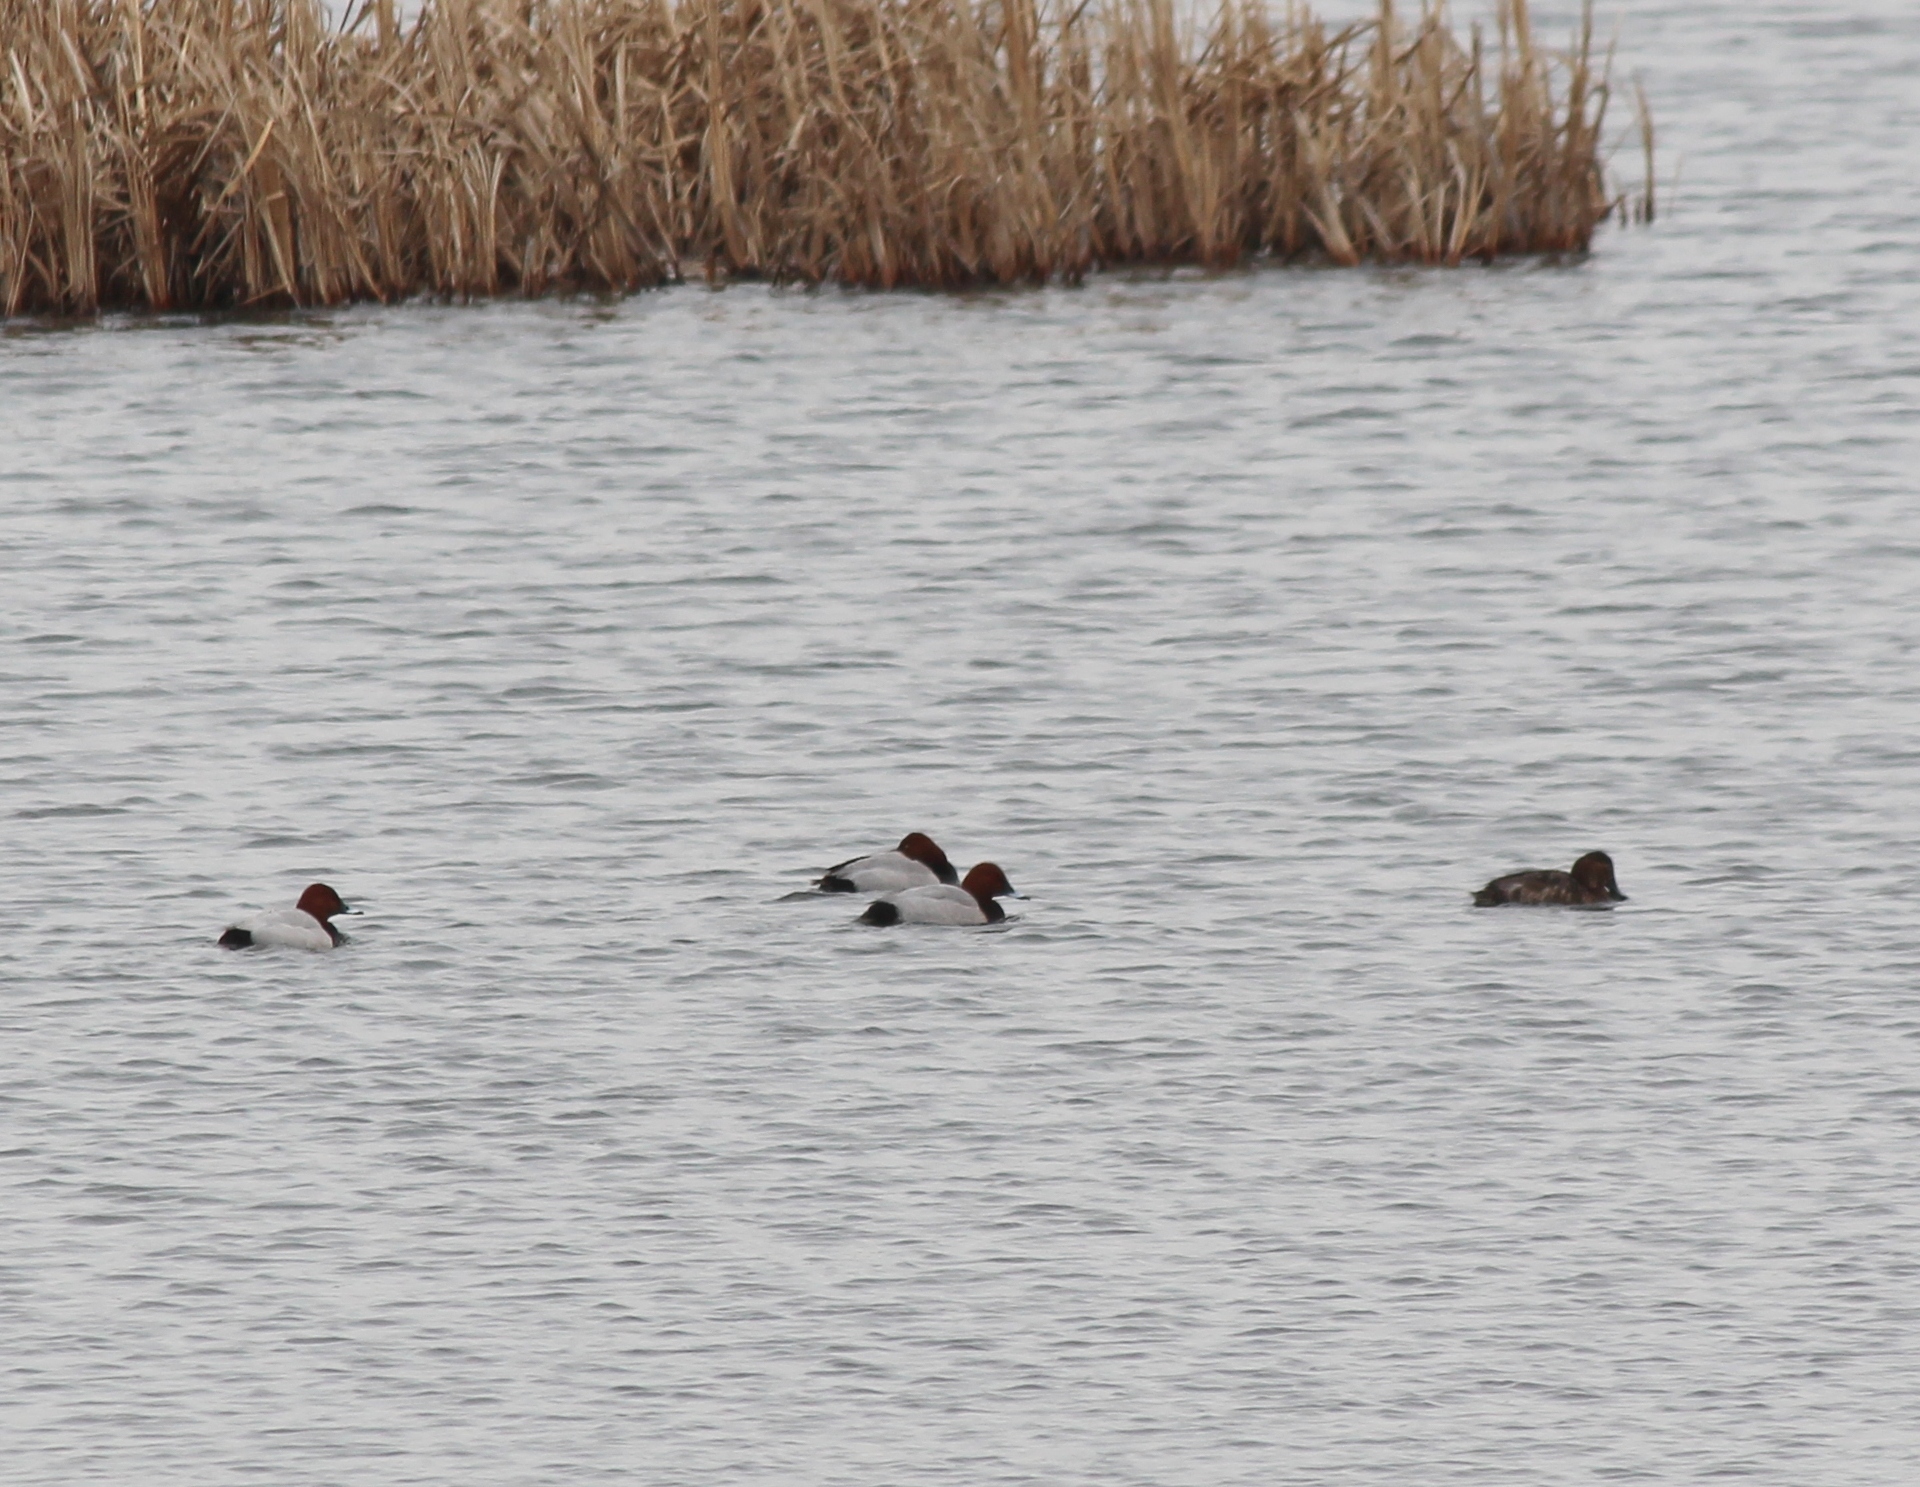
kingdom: Animalia
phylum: Chordata
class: Aves
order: Anseriformes
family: Anatidae
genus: Aythya
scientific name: Aythya ferina
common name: Common pochard
